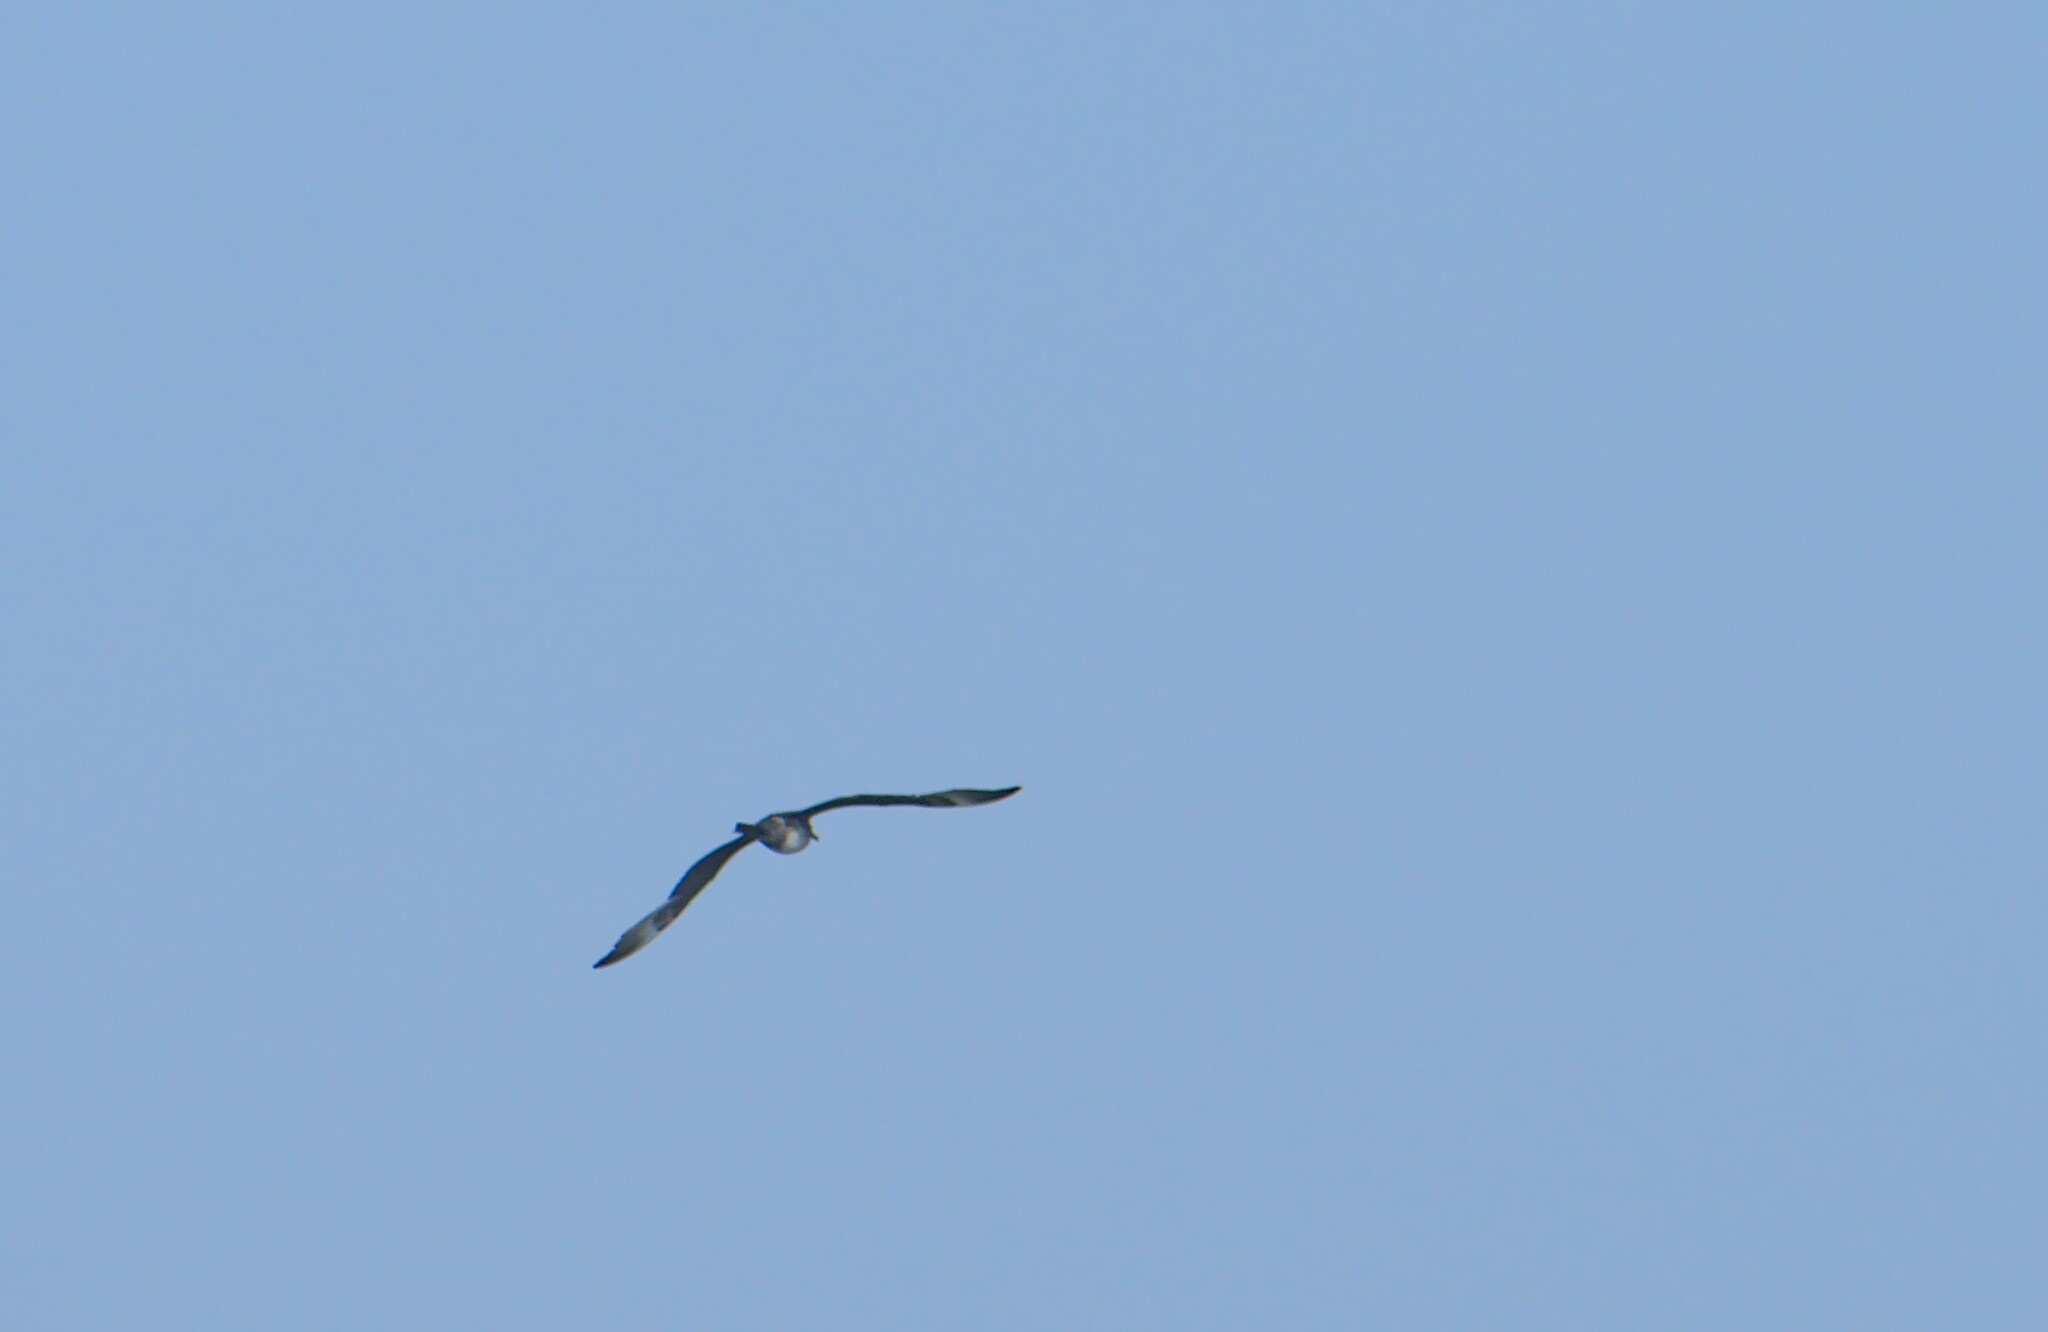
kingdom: Animalia
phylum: Chordata
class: Aves
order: Charadriiformes
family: Stercorariidae
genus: Stercorarius
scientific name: Stercorarius pomarinus
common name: Pomarine jaeger
